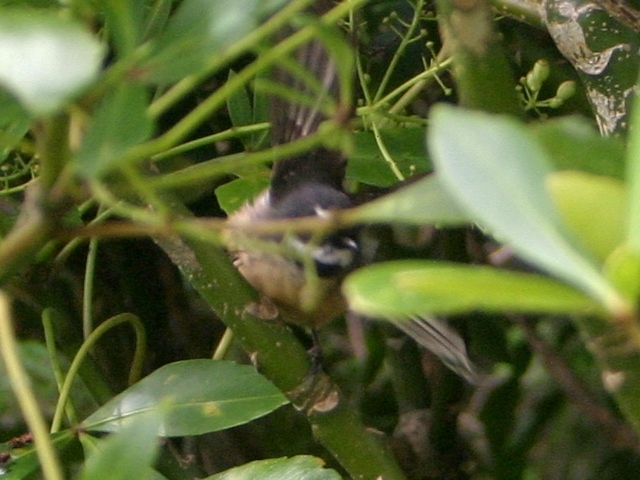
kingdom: Animalia
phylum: Chordata
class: Aves
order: Passeriformes
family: Rhipiduridae
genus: Rhipidura
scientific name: Rhipidura fuliginosa
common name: New zealand fantail
